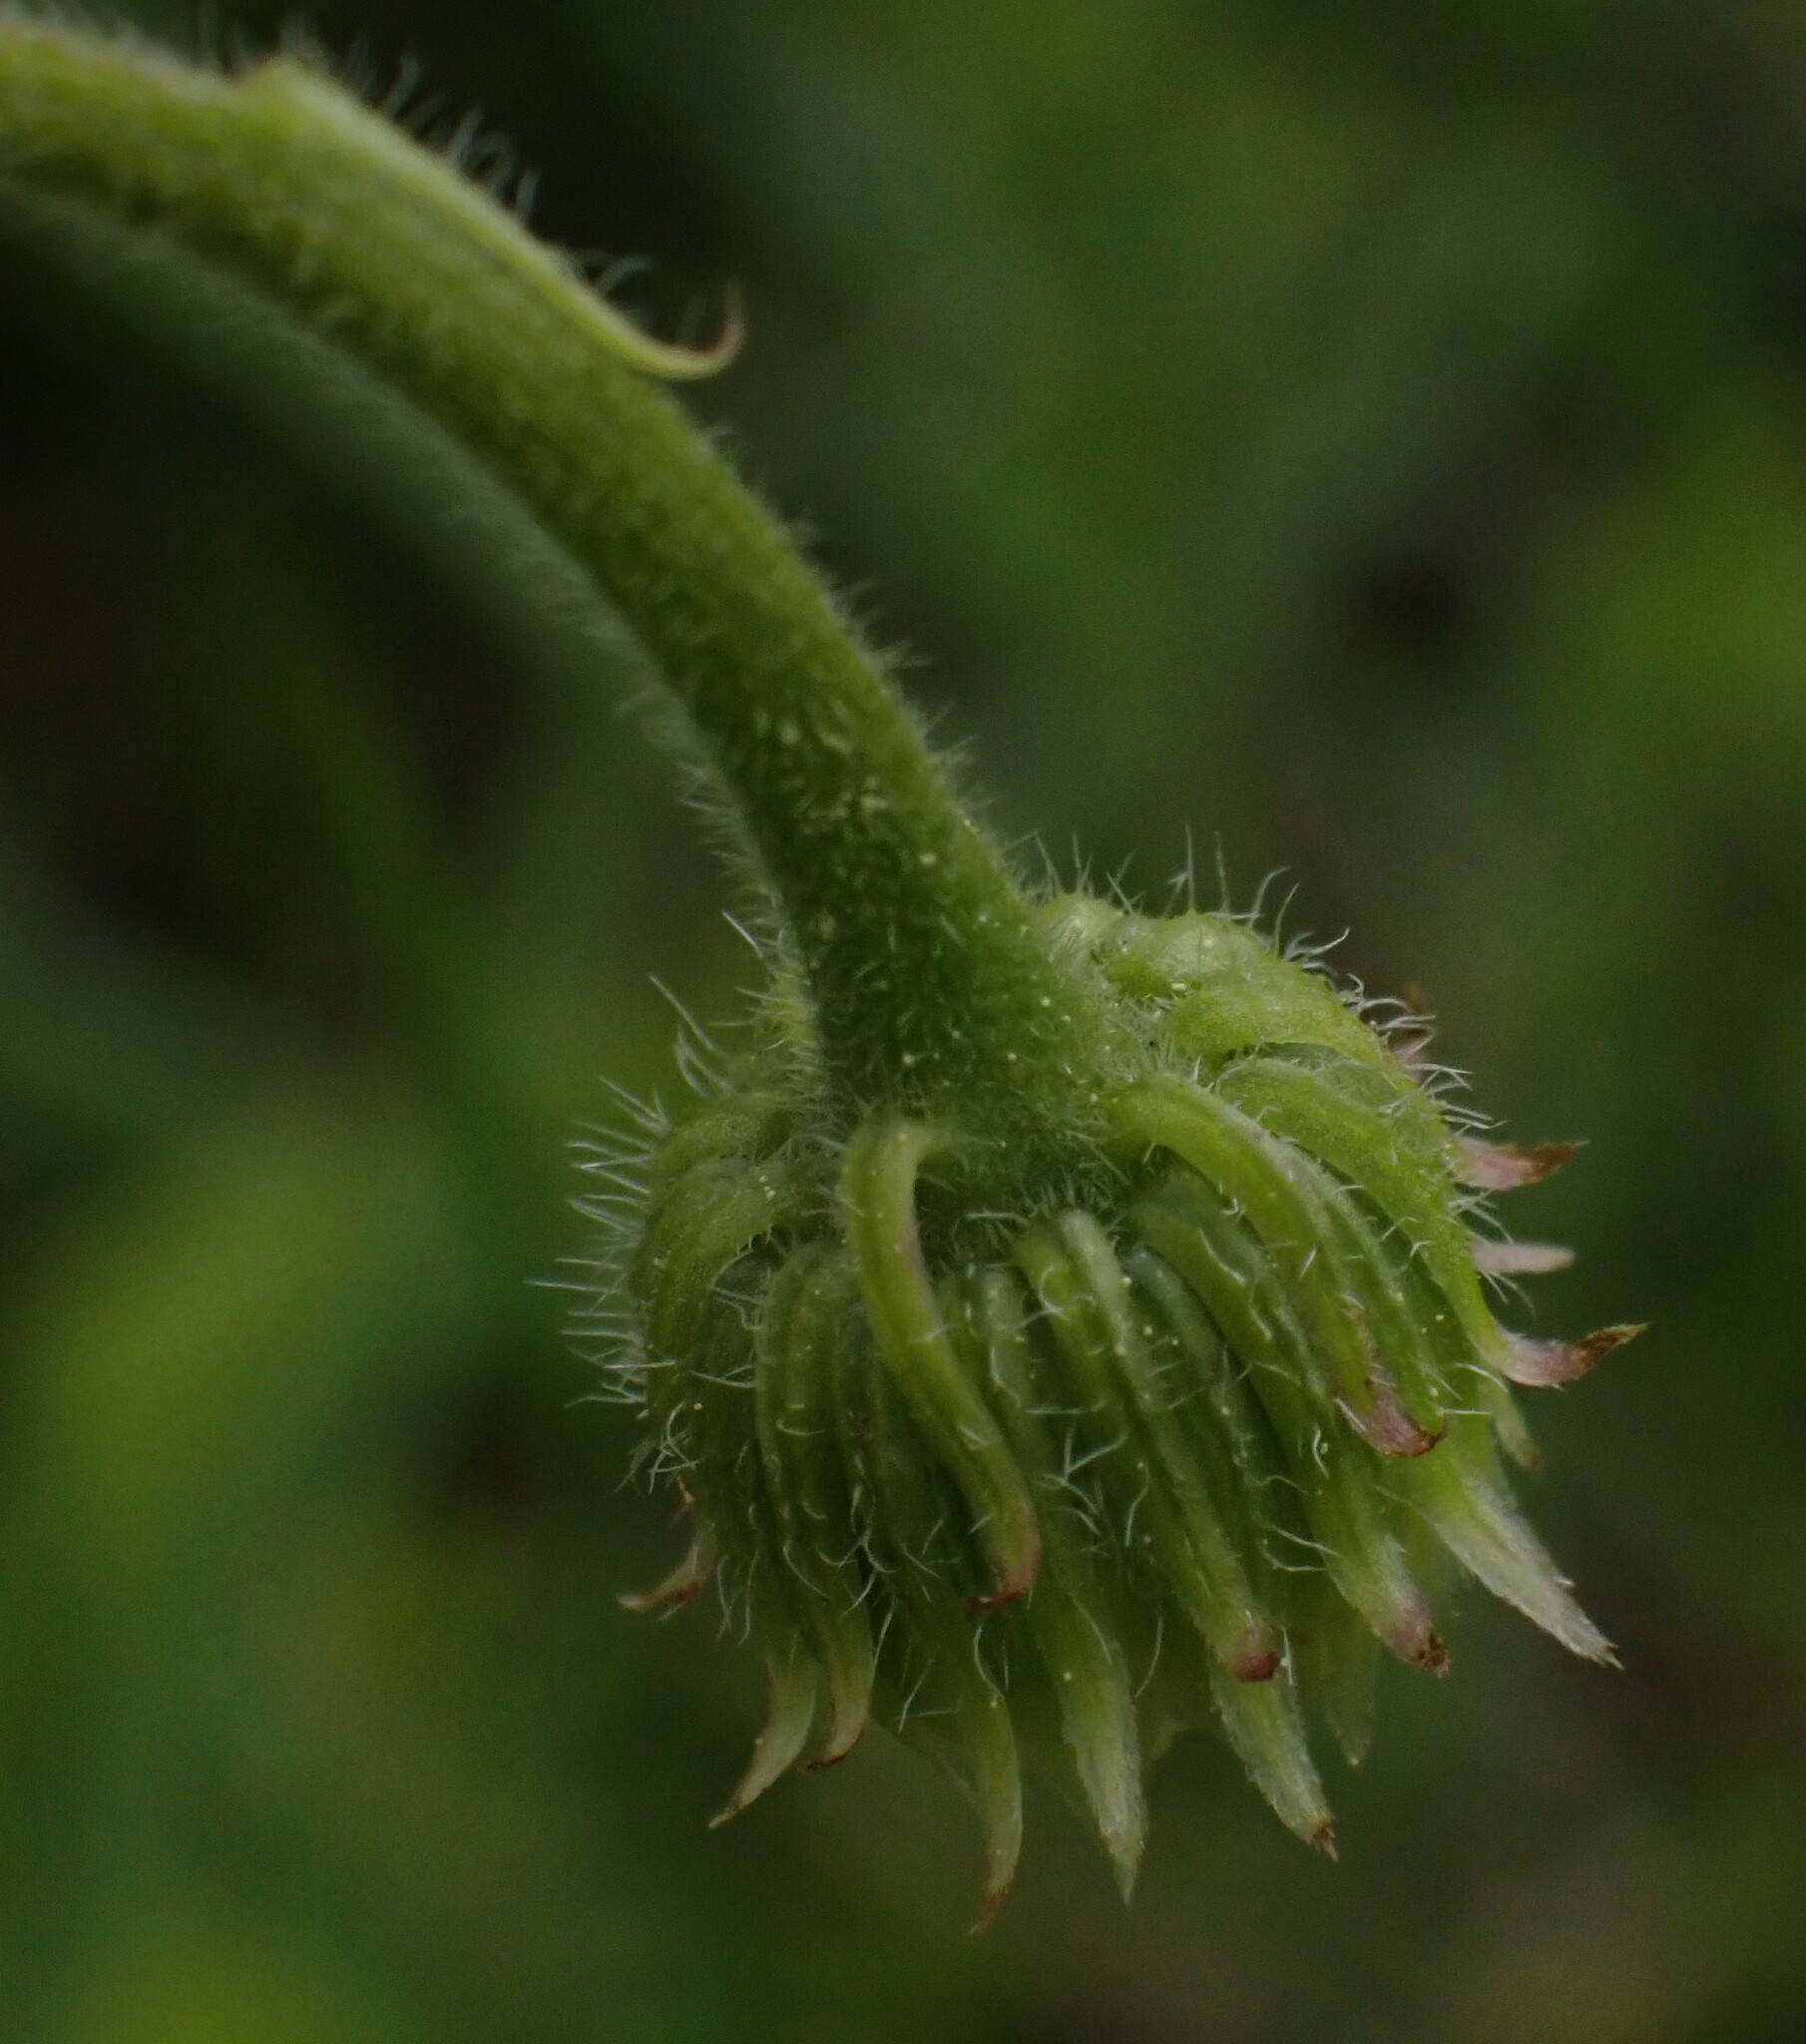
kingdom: Plantae
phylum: Tracheophyta
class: Magnoliopsida
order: Asterales
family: Asteraceae
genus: Erigeron
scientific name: Erigeron glabellus
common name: Smooth fleabane
